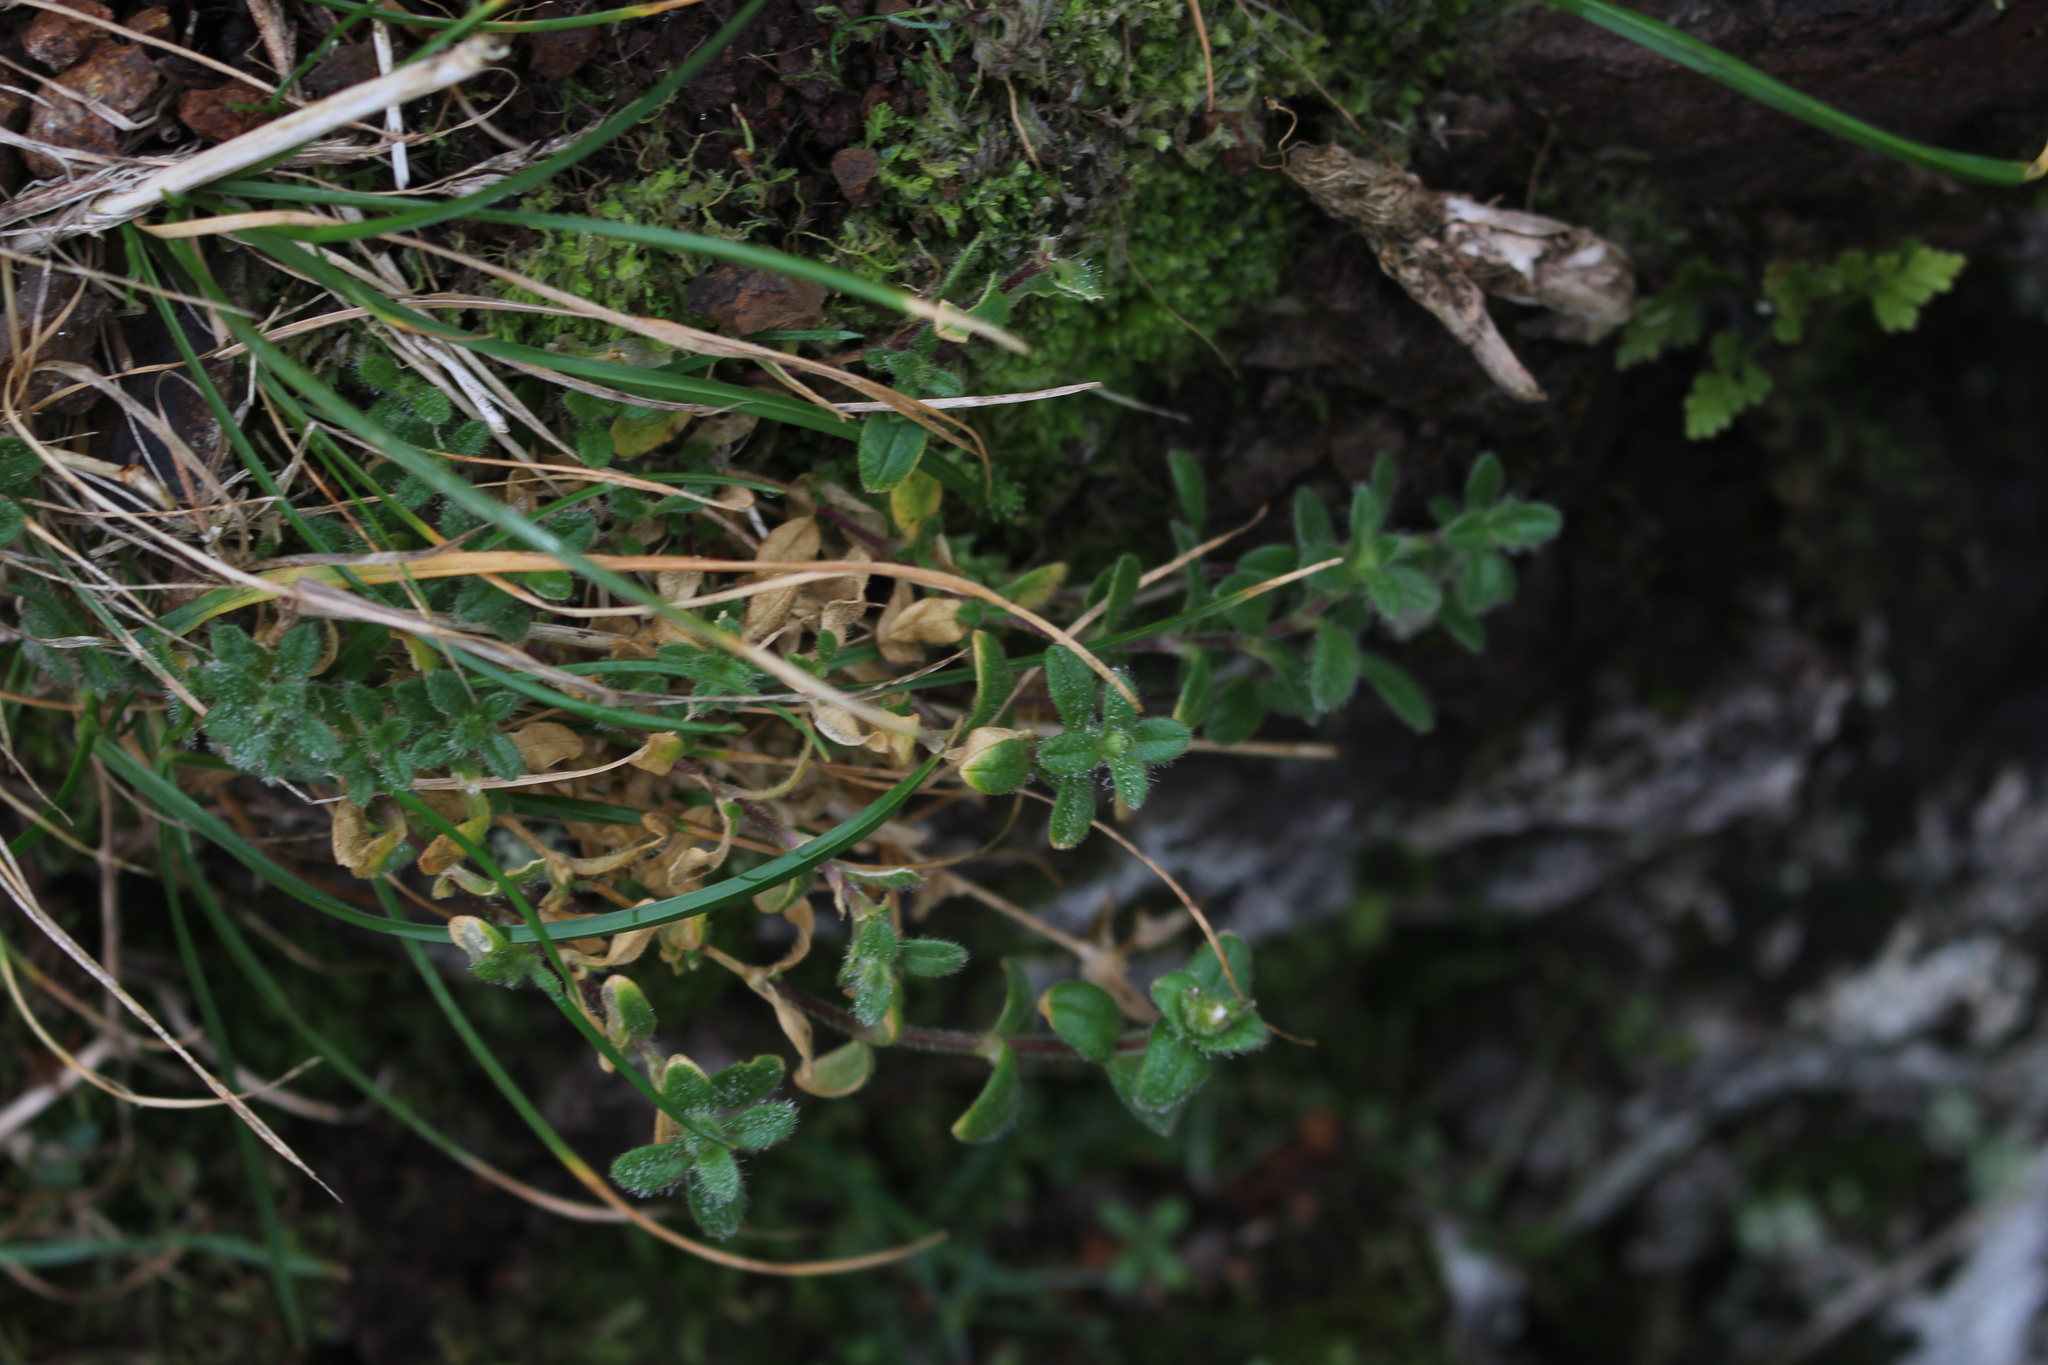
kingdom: Plantae
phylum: Tracheophyta
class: Magnoliopsida
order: Caryophyllales
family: Caryophyllaceae
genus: Cerastium
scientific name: Cerastium fontanum
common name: Common mouse-ear
